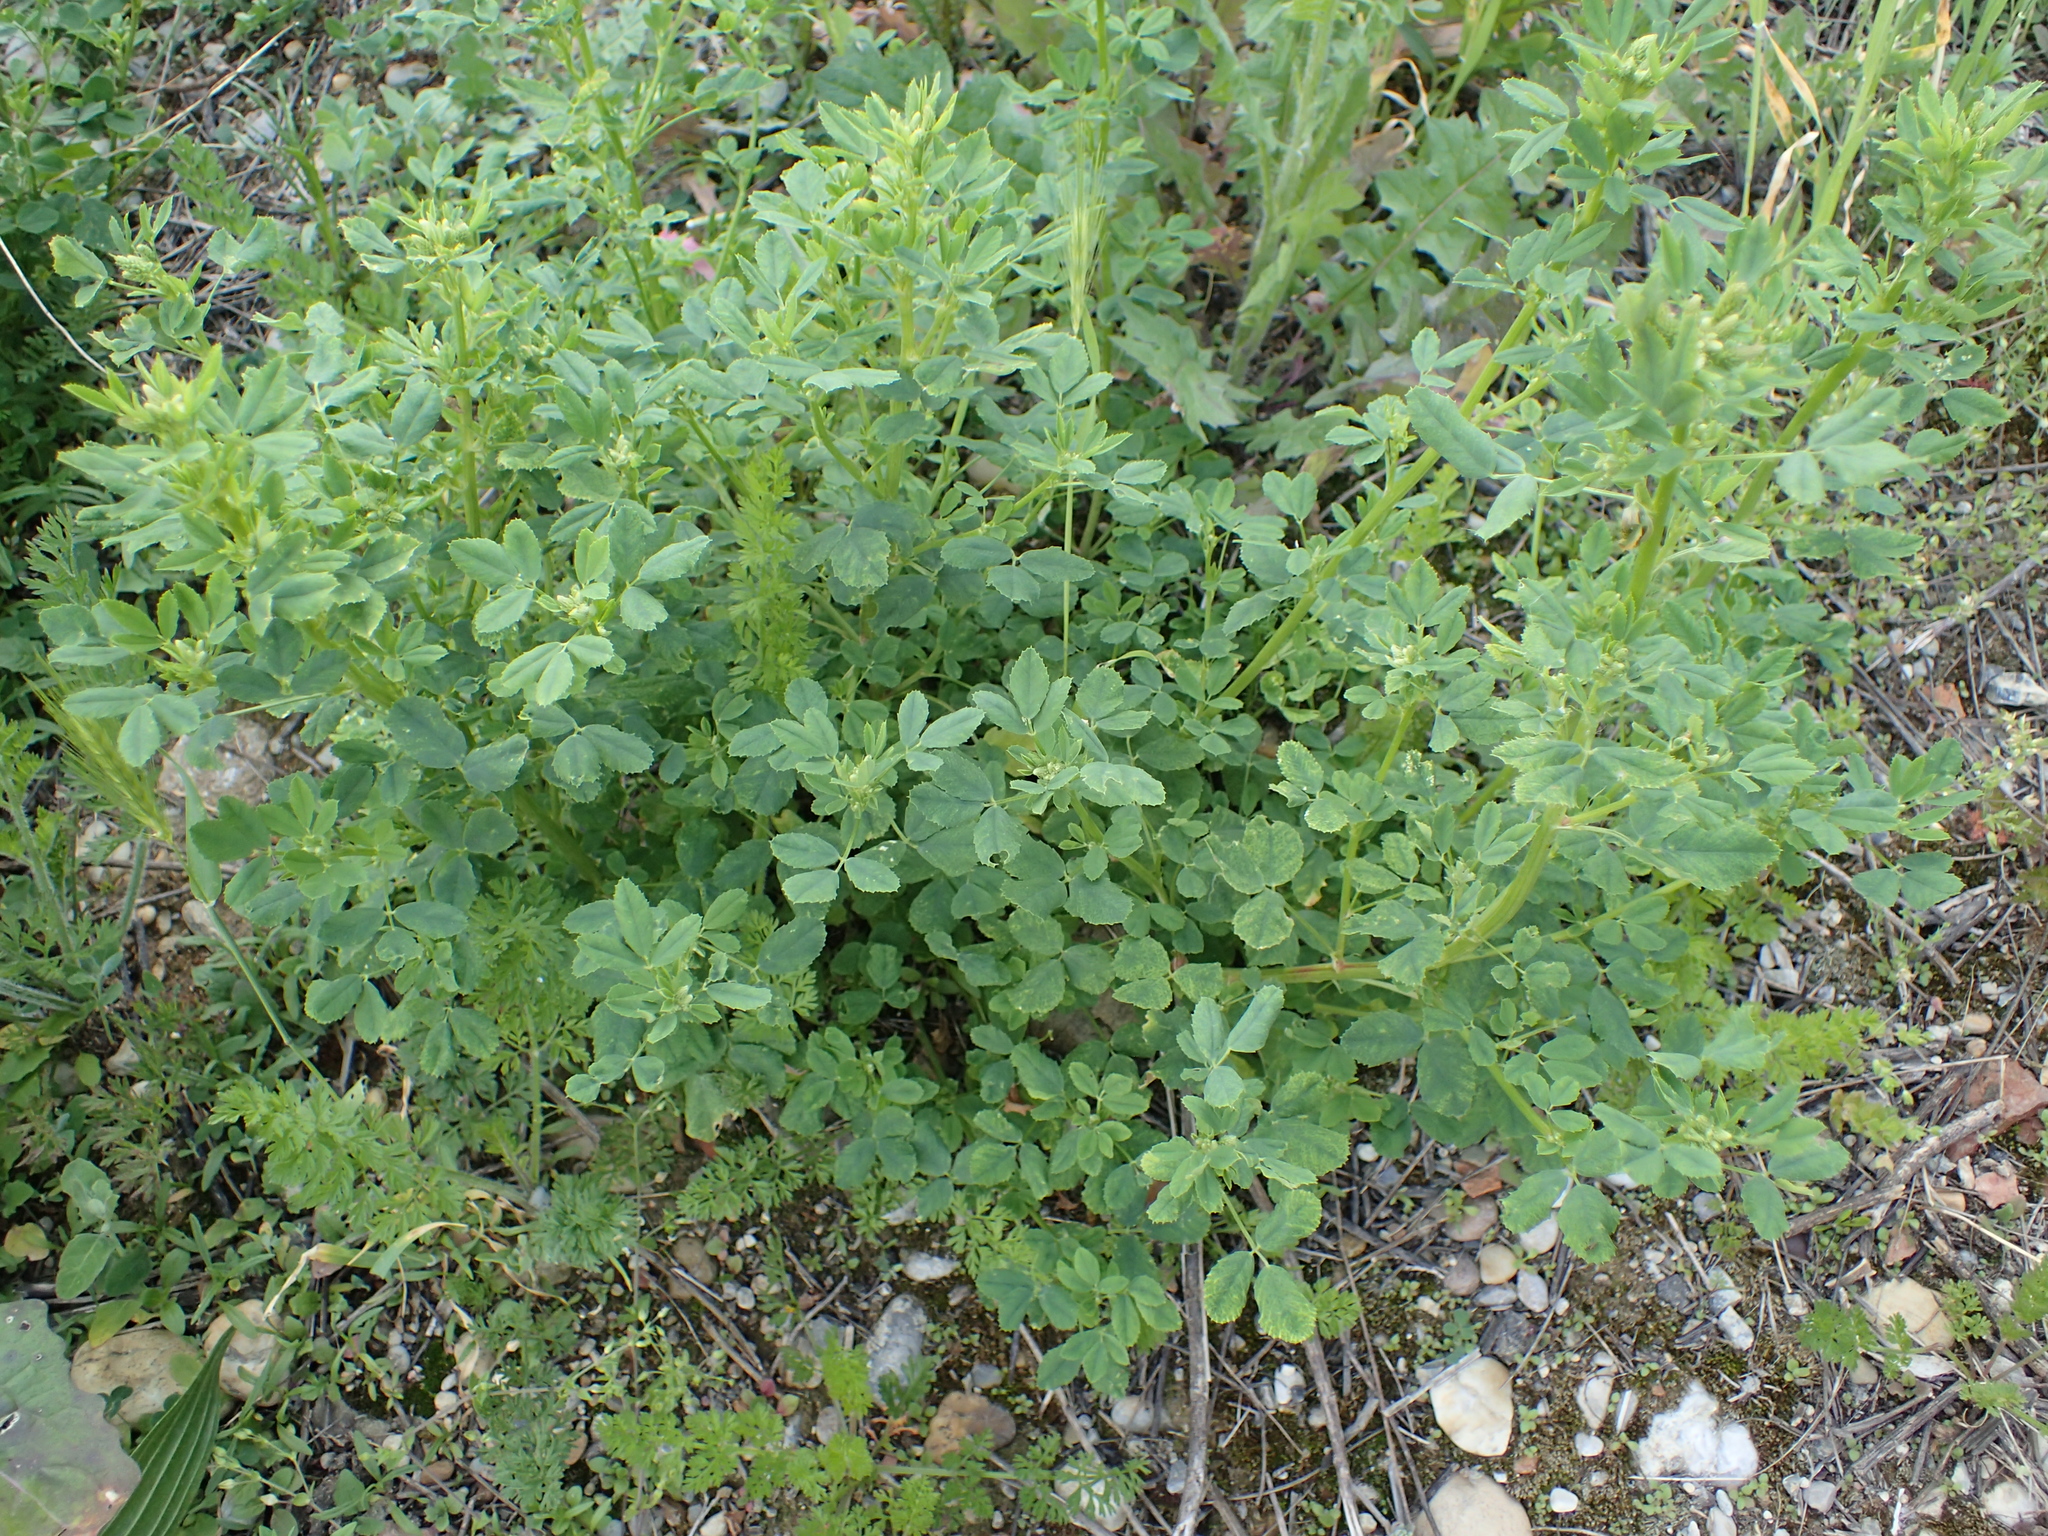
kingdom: Plantae
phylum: Tracheophyta
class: Magnoliopsida
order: Fabales
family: Fabaceae
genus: Melilotus
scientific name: Melilotus officinalis
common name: Sweetclover
